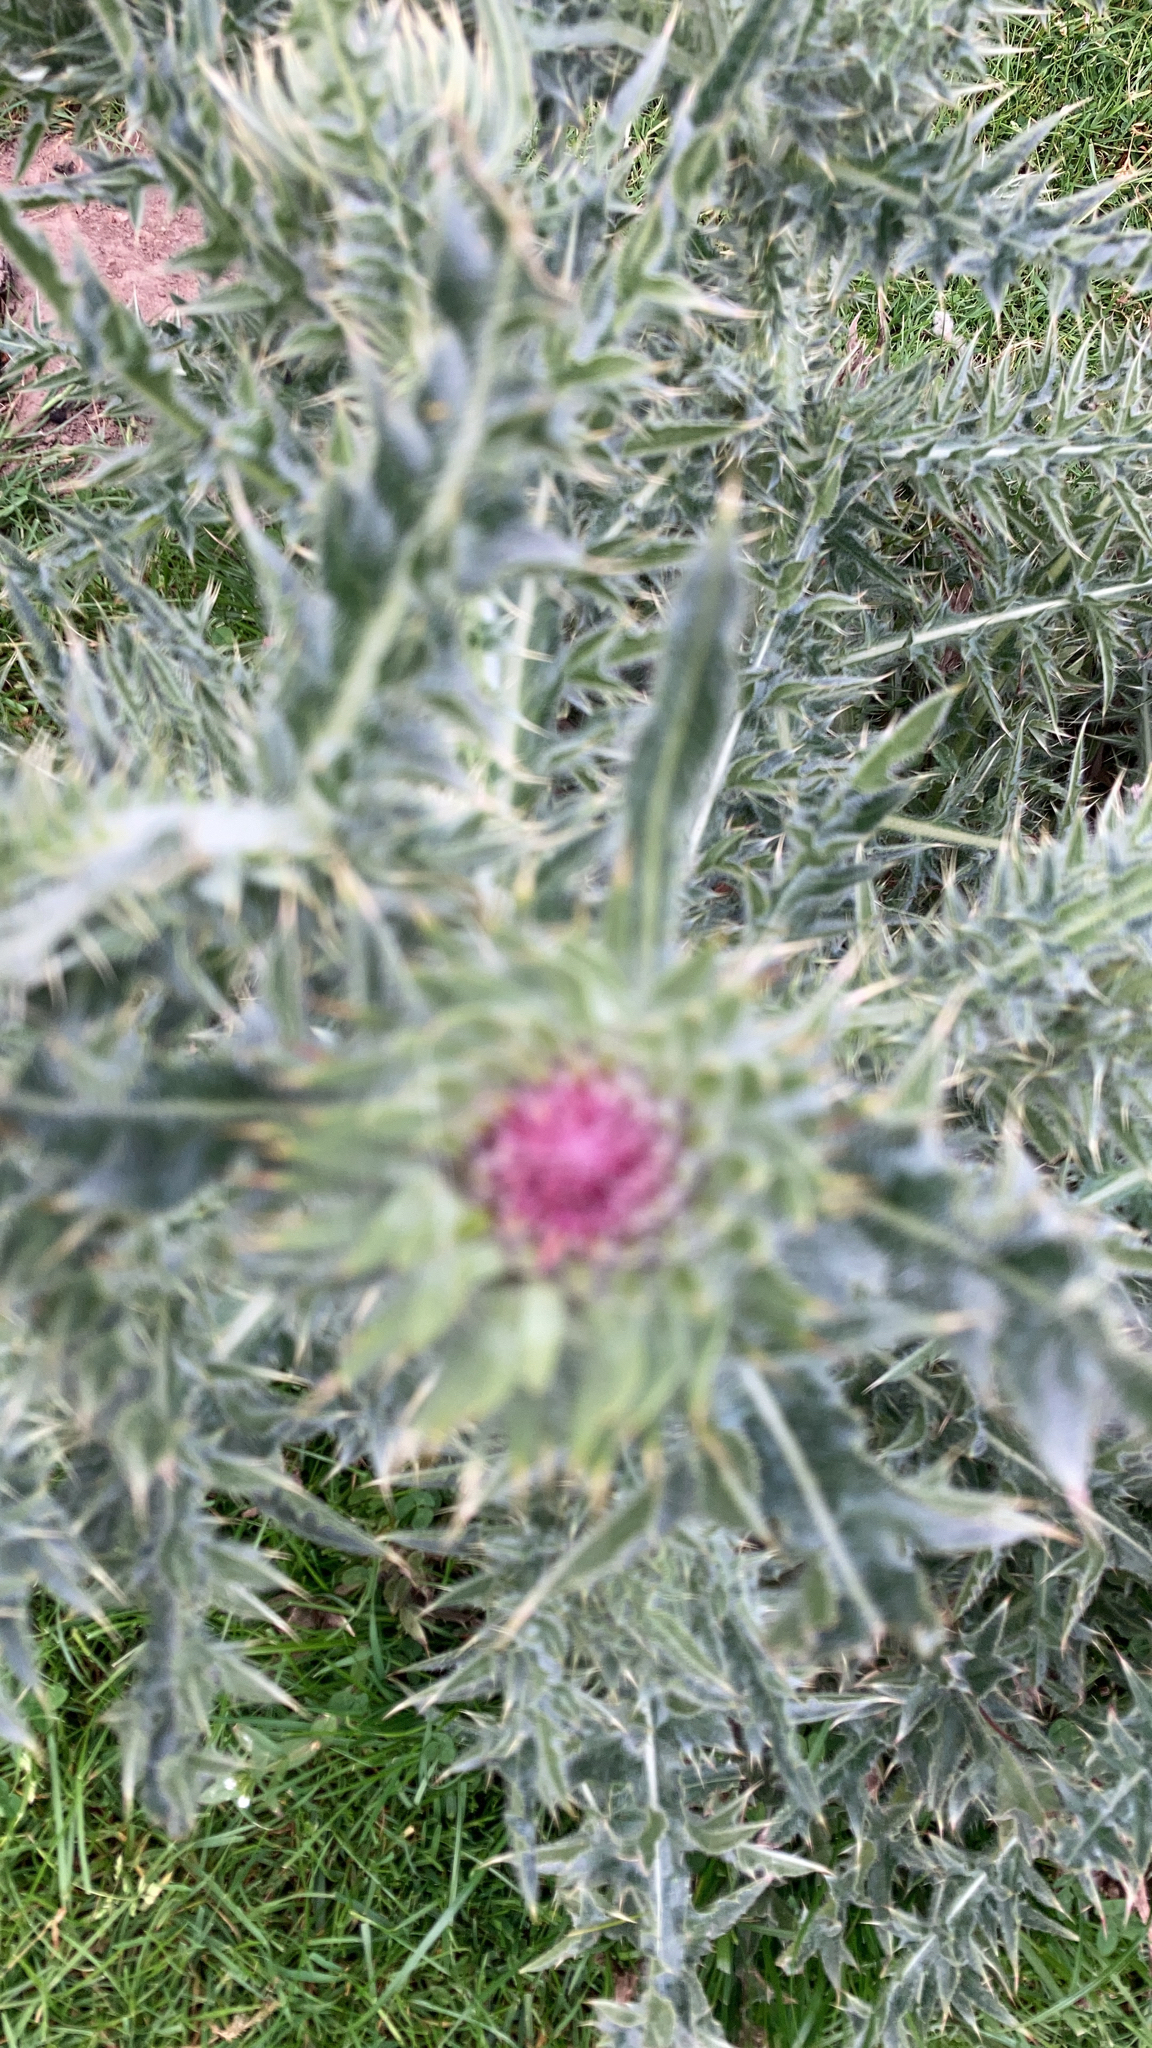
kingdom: Plantae
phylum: Tracheophyta
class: Magnoliopsida
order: Asterales
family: Asteraceae
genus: Carduus
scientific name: Carduus nutans
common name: Musk thistle
